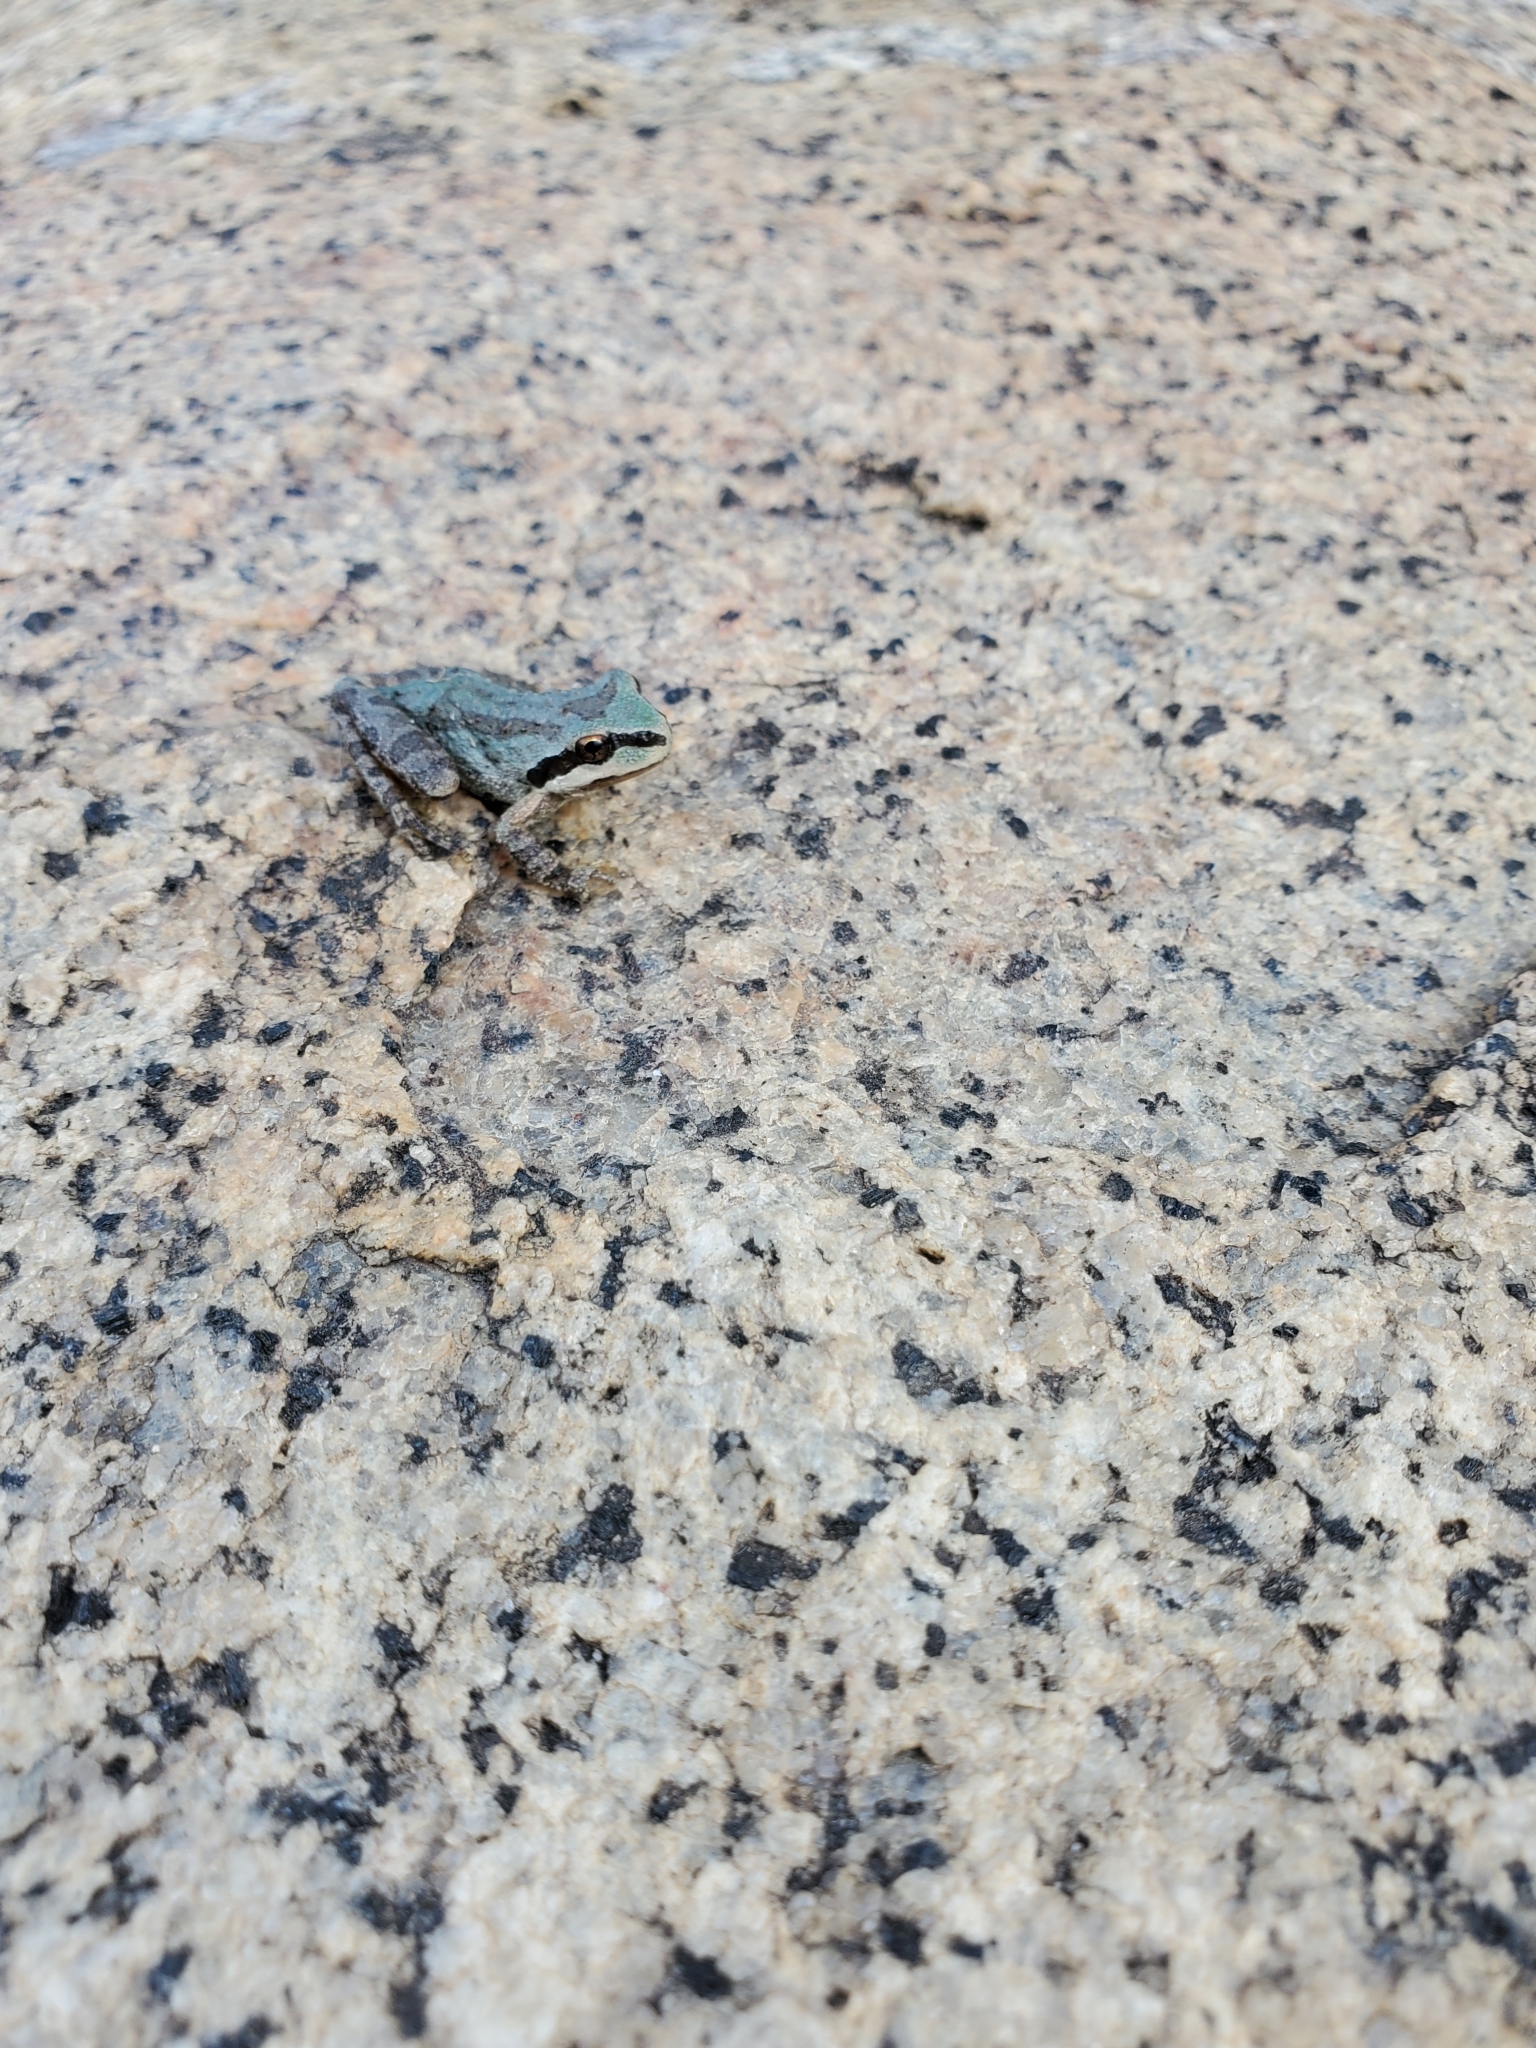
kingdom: Animalia
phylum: Chordata
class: Amphibia
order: Anura
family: Hylidae
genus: Pseudacris
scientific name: Pseudacris regilla
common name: Pacific chorus frog
